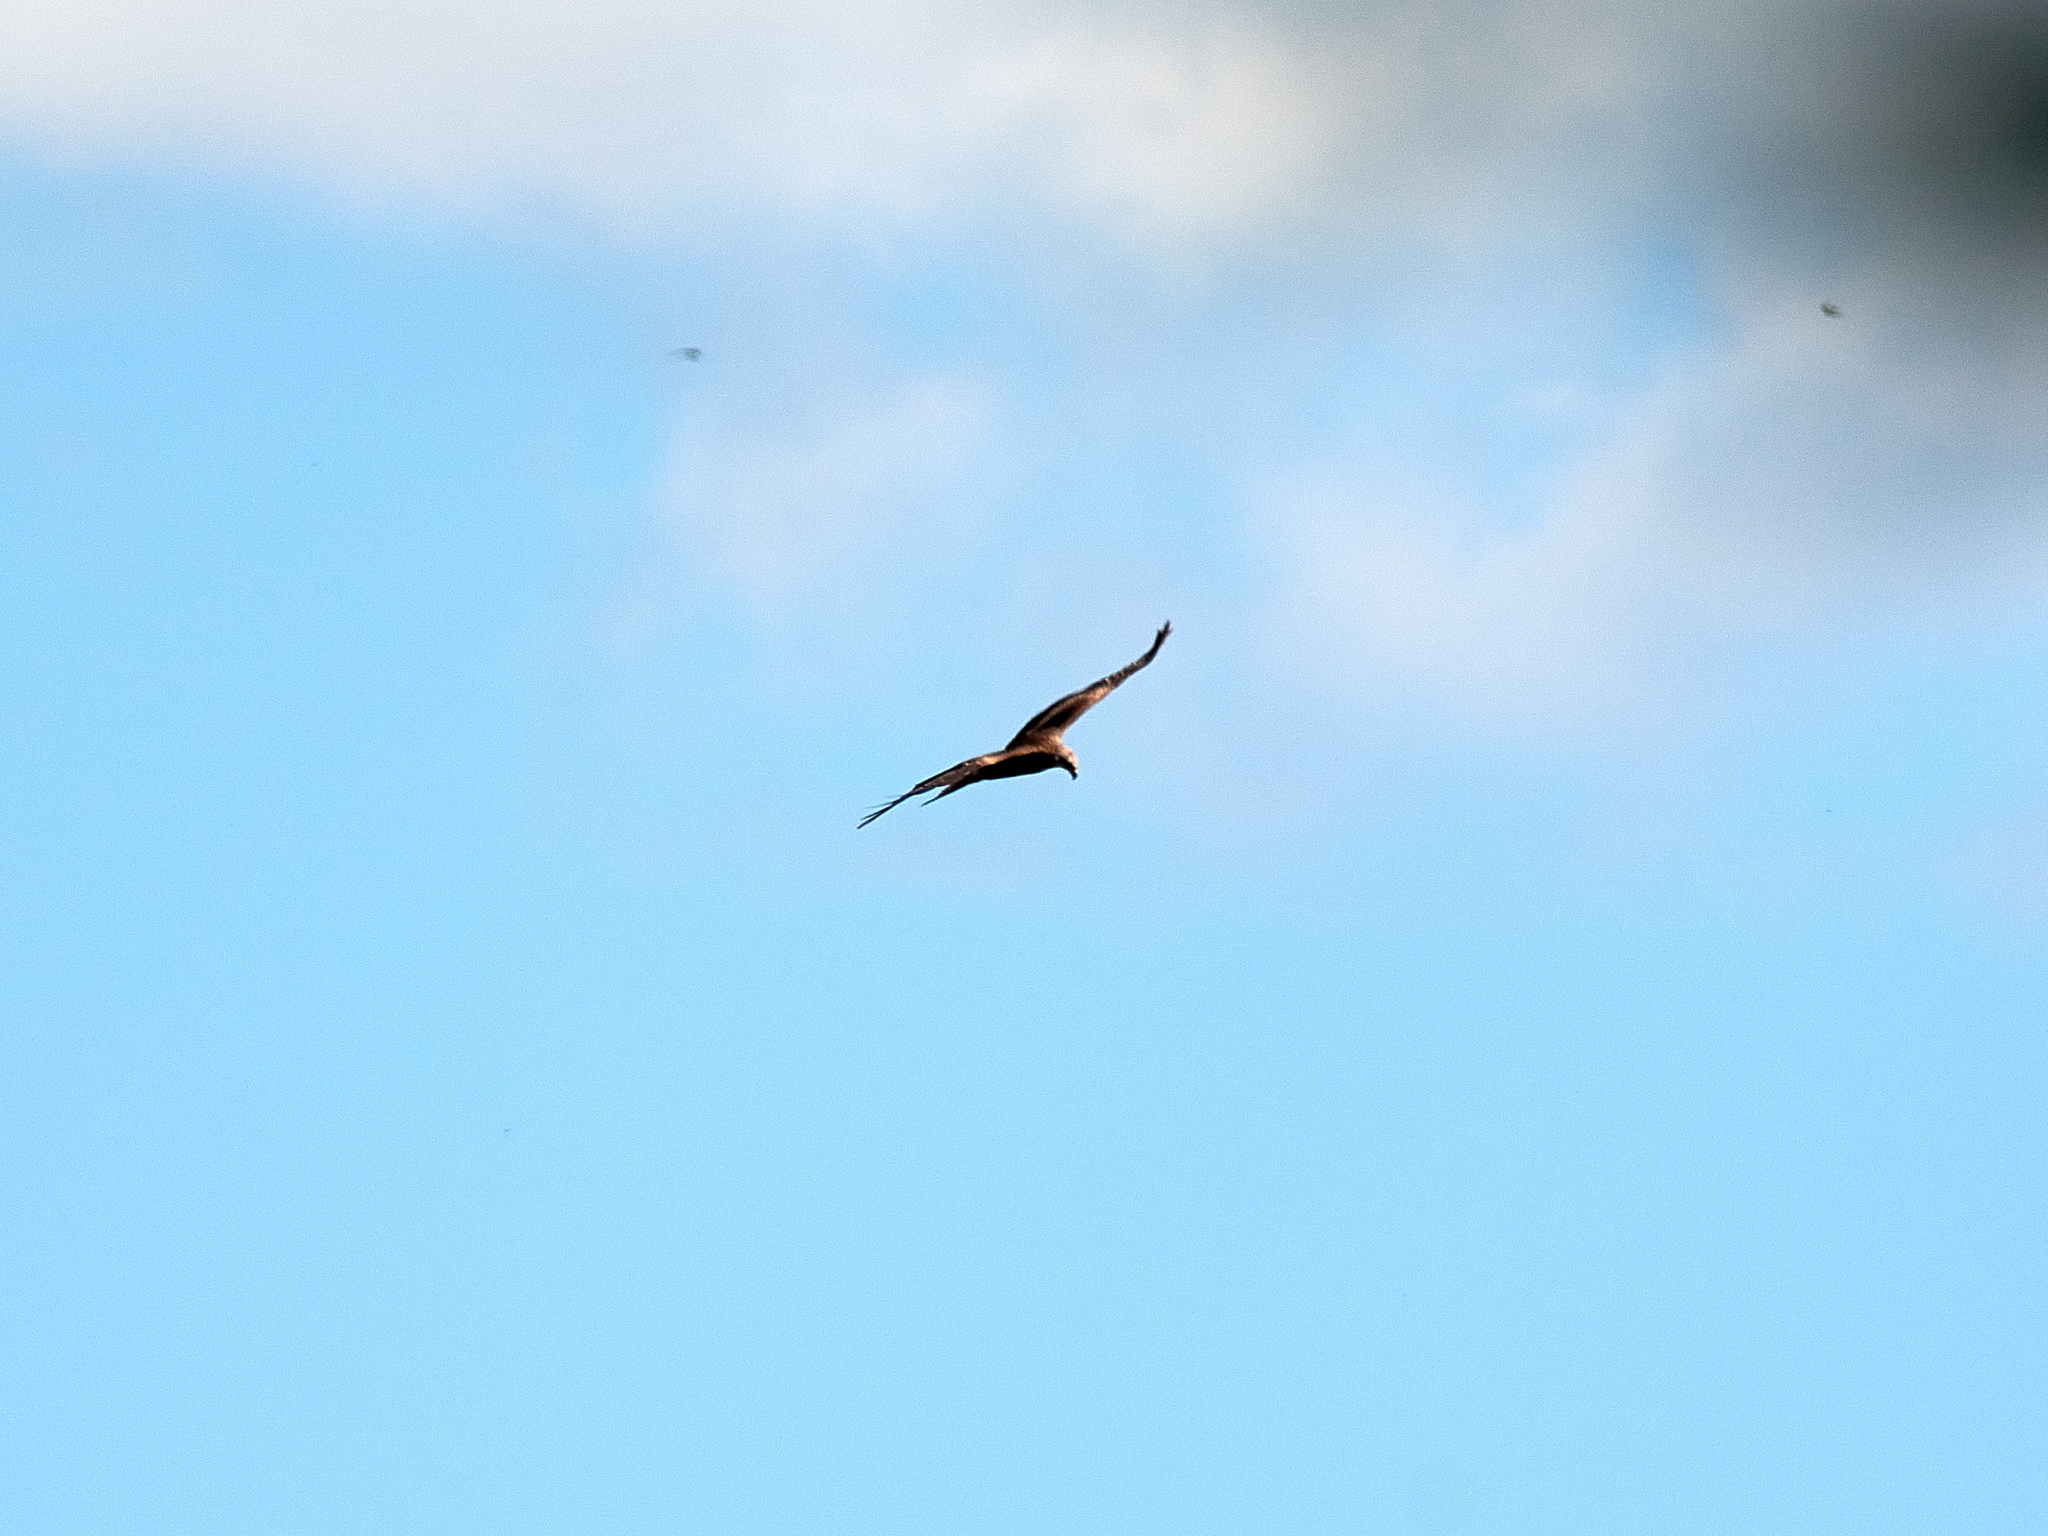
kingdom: Animalia
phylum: Chordata
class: Aves
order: Accipitriformes
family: Accipitridae
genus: Milvus
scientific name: Milvus migrans
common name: Black kite
